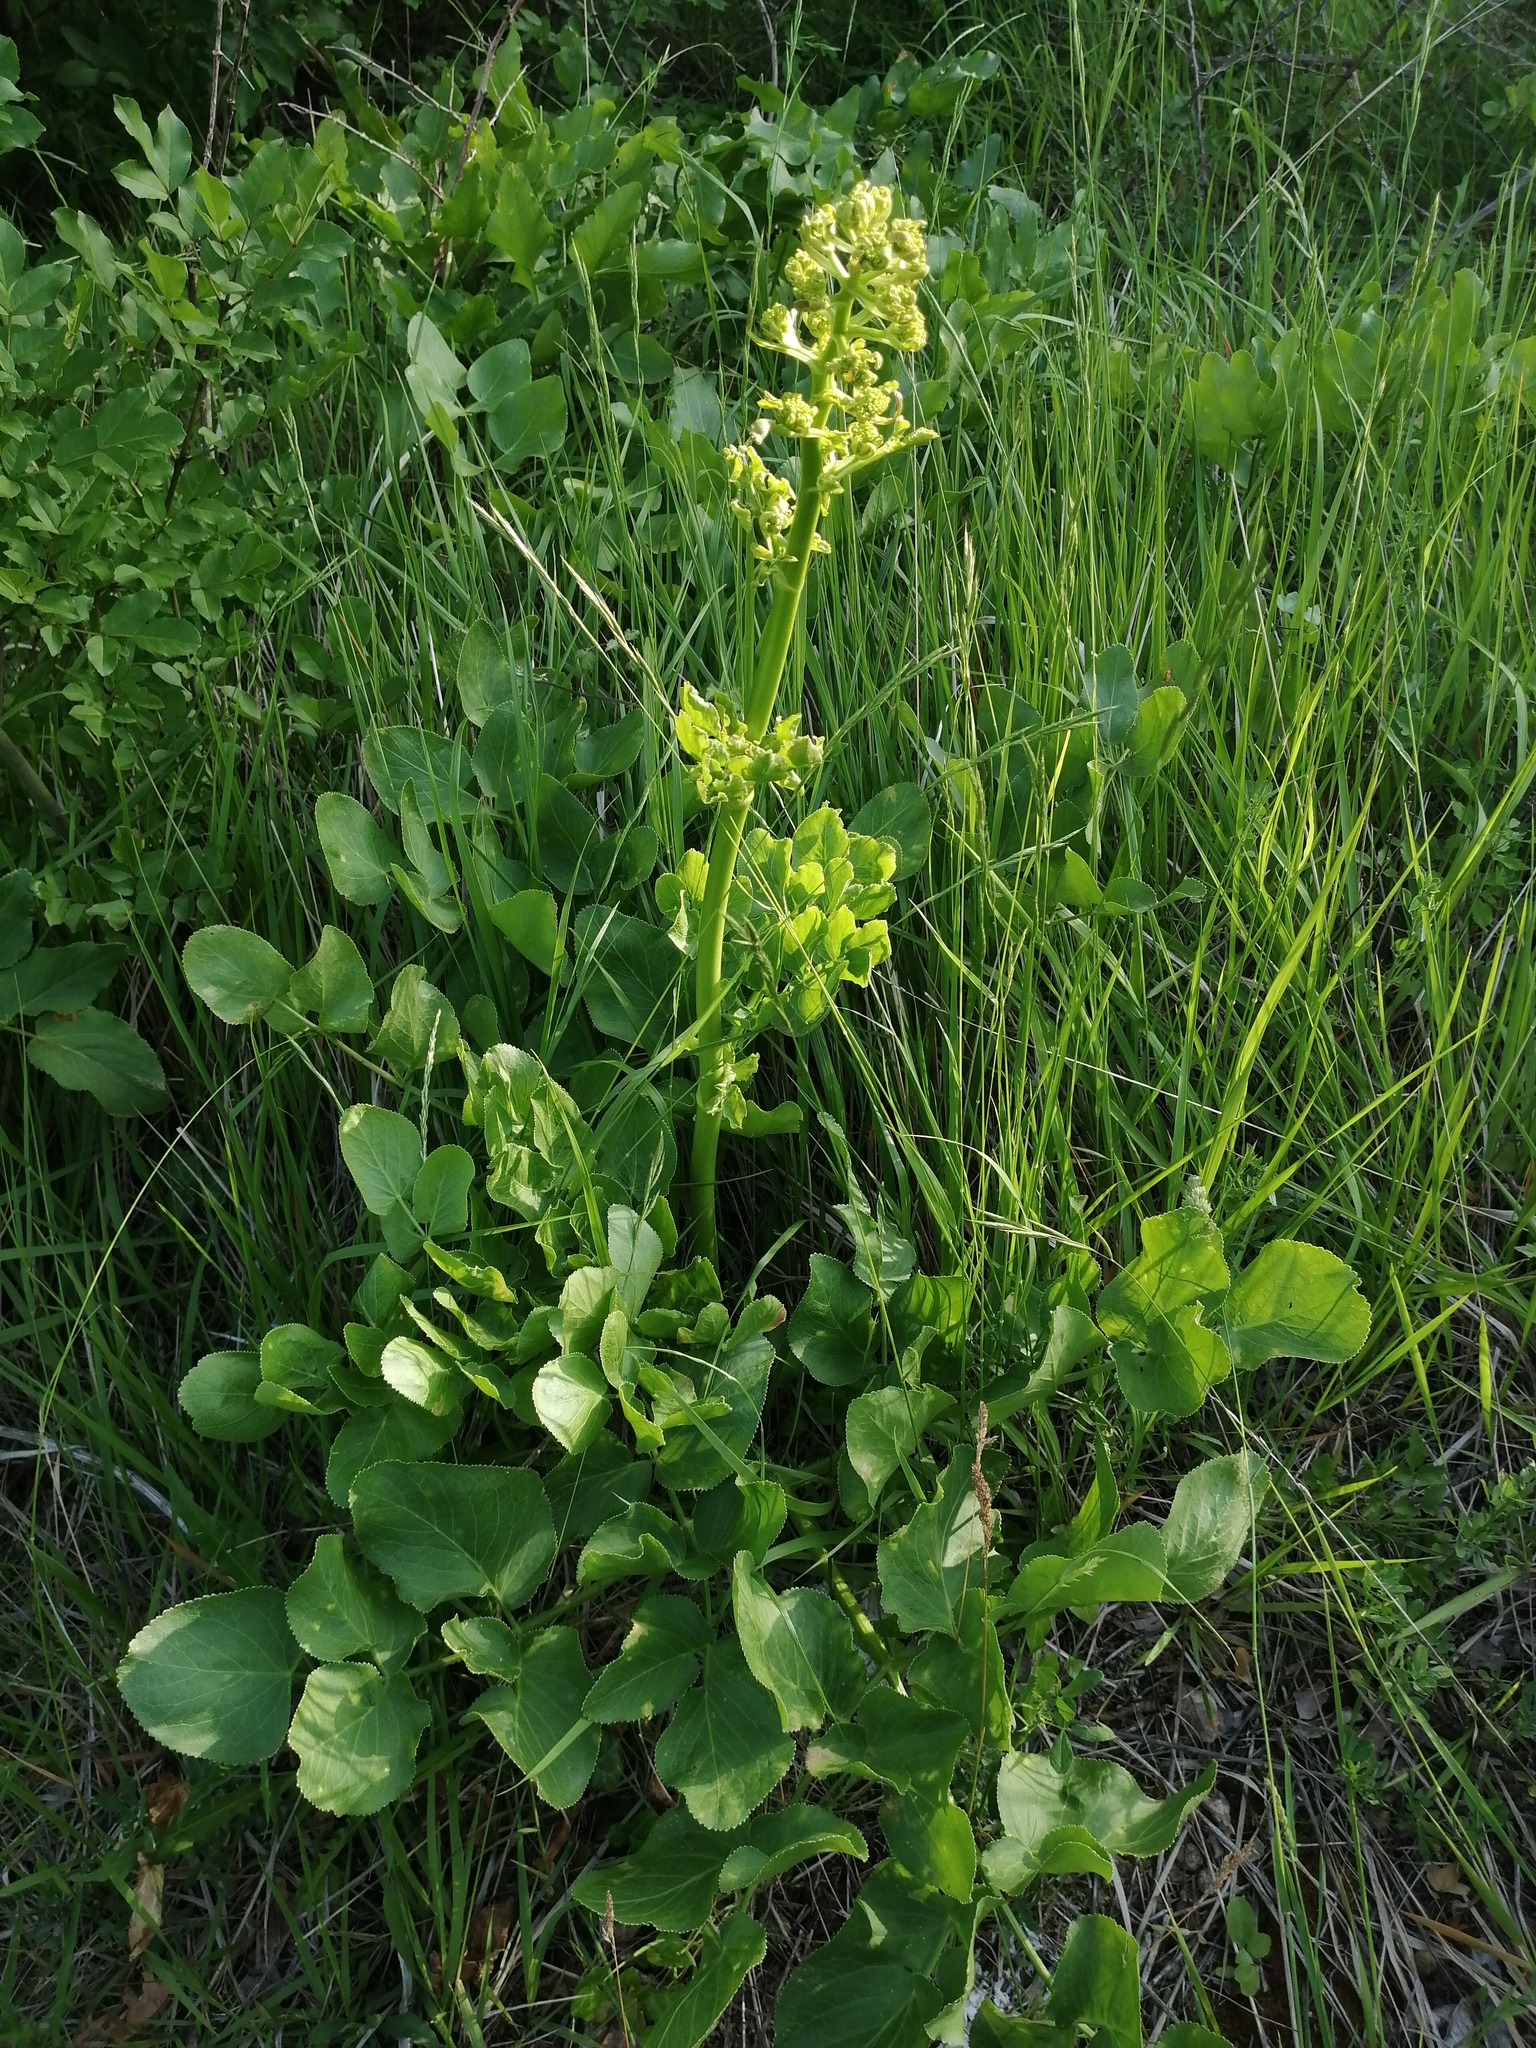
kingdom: Plantae
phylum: Tracheophyta
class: Magnoliopsida
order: Apiales
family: Apiaceae
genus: Opopanax
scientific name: Opopanax chironium
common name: Hercules-all-heal
